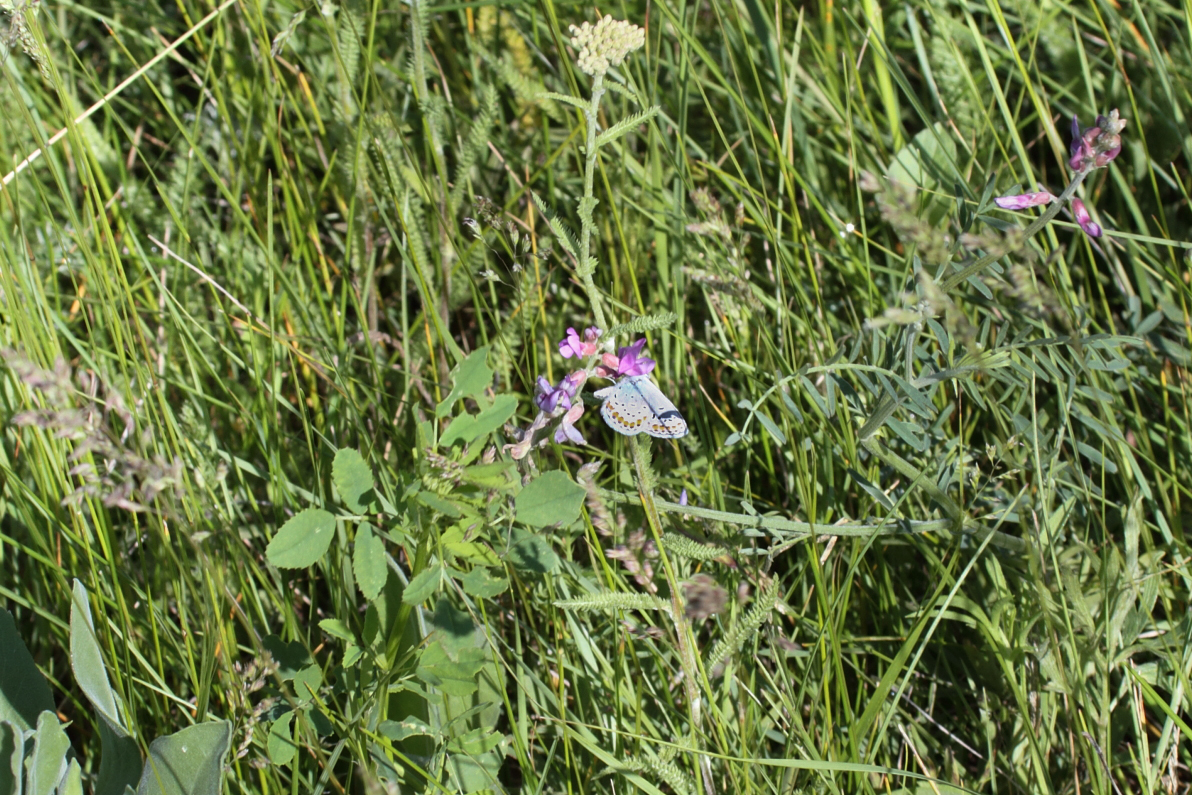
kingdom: Animalia
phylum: Arthropoda
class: Insecta
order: Lepidoptera
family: Lycaenidae
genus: Lycaeides
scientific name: Lycaeides melissa
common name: Melissa blue
